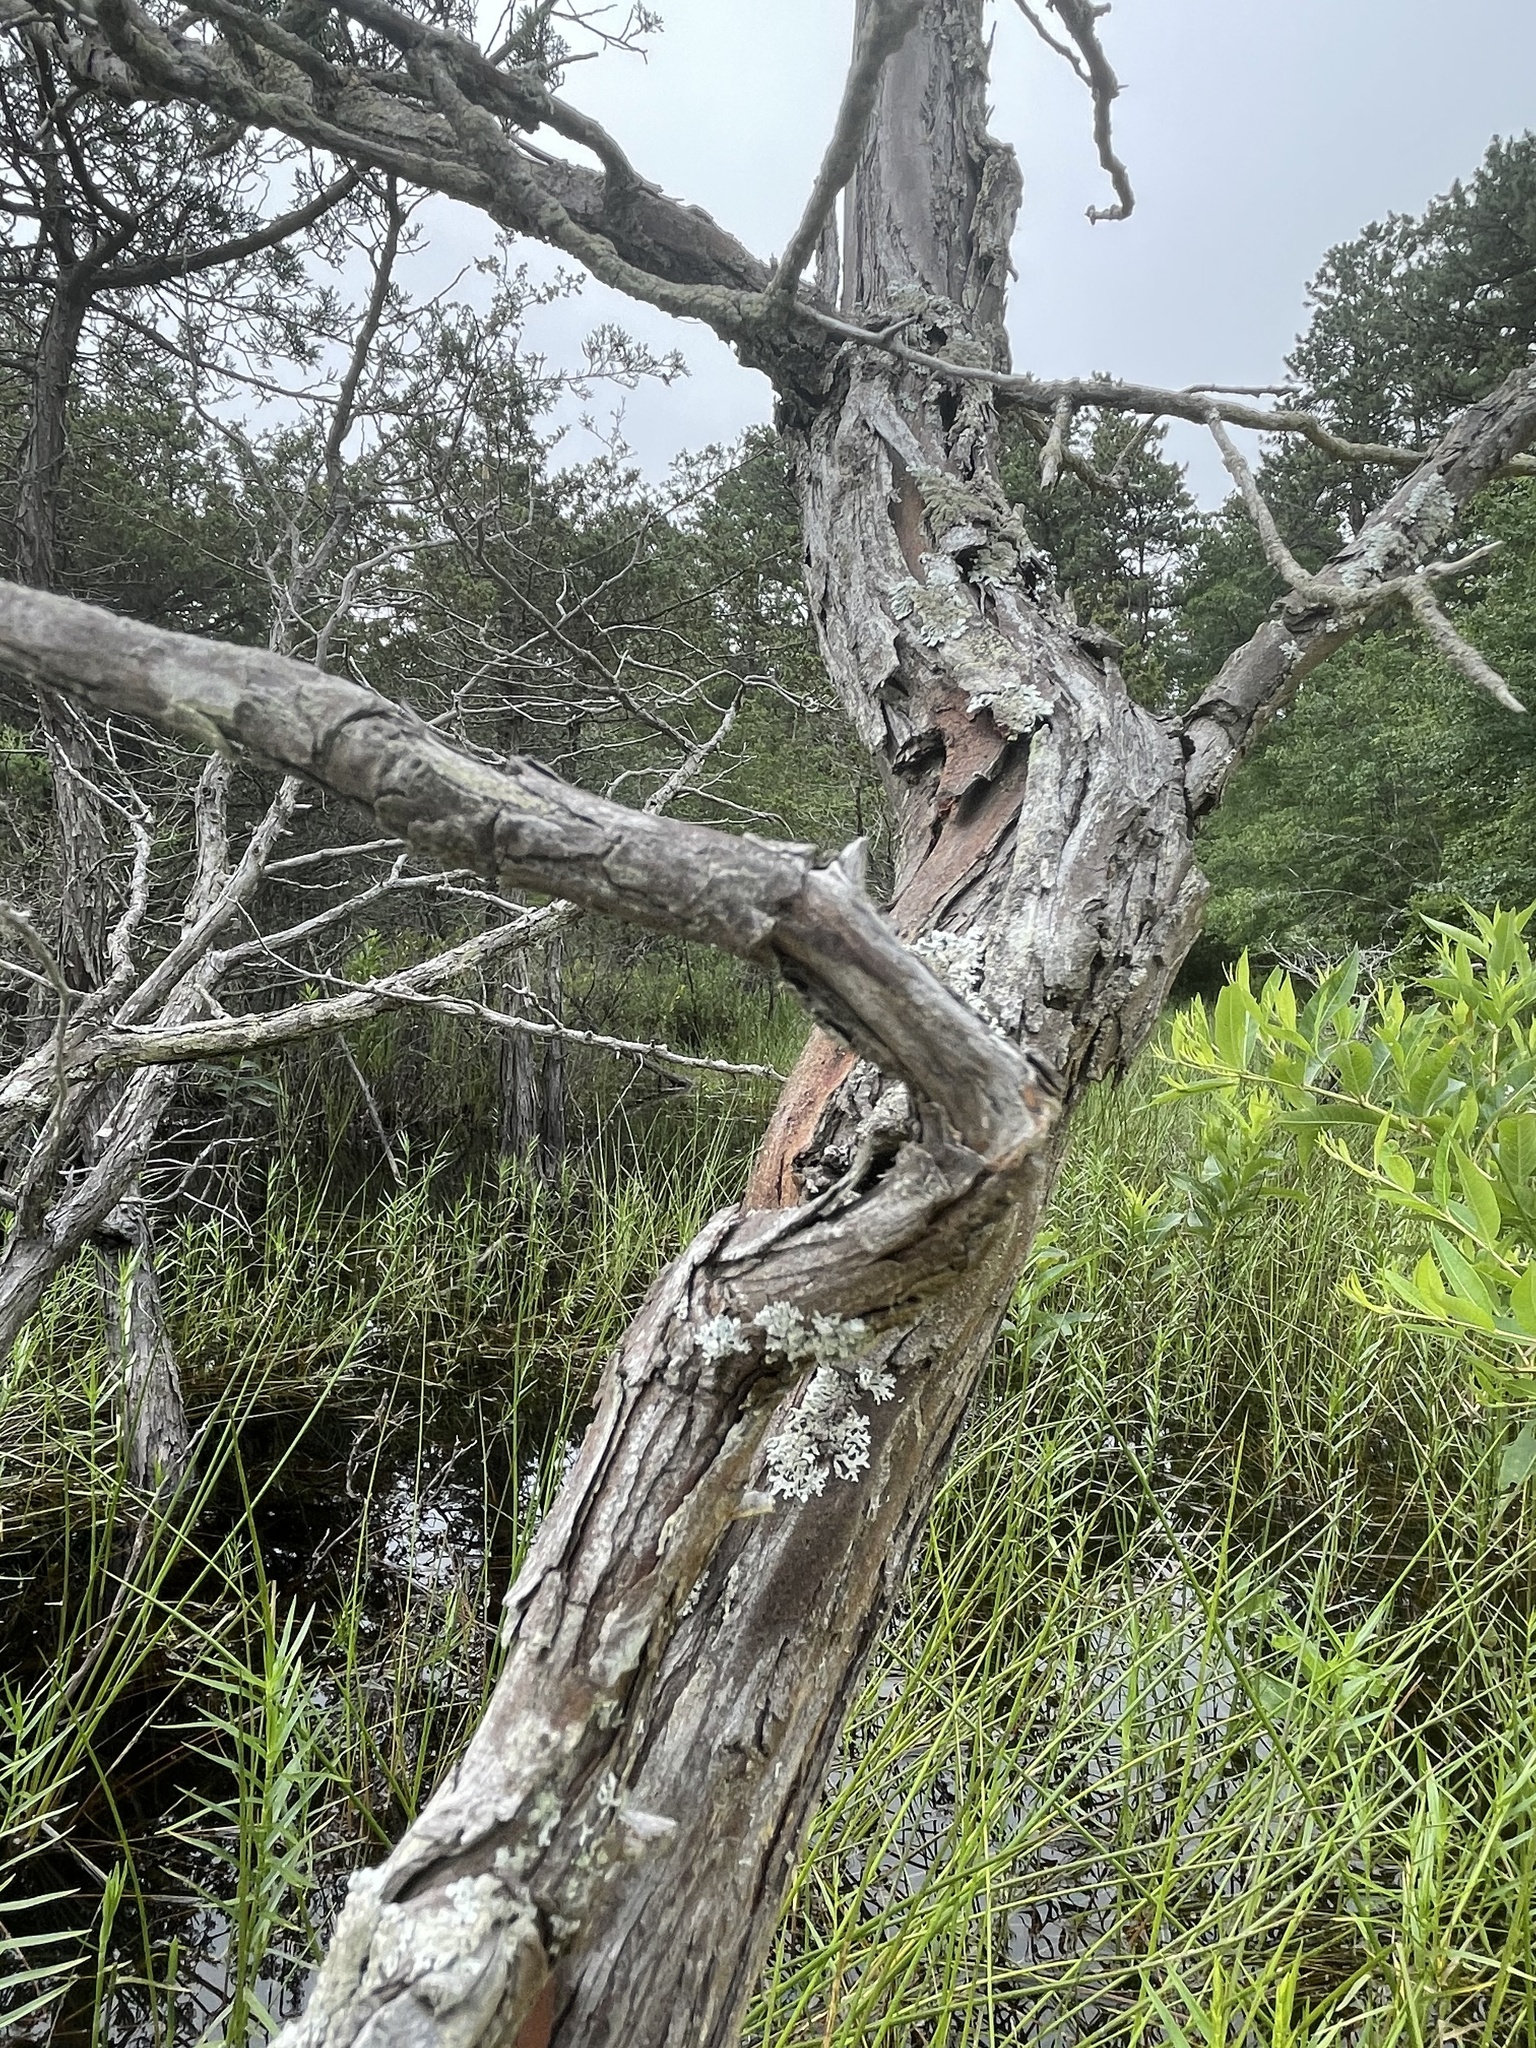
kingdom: Plantae
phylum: Tracheophyta
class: Pinopsida
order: Pinales
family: Cupressaceae
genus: Chamaecyparis
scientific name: Chamaecyparis thyoides
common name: Atlantic white cedar
